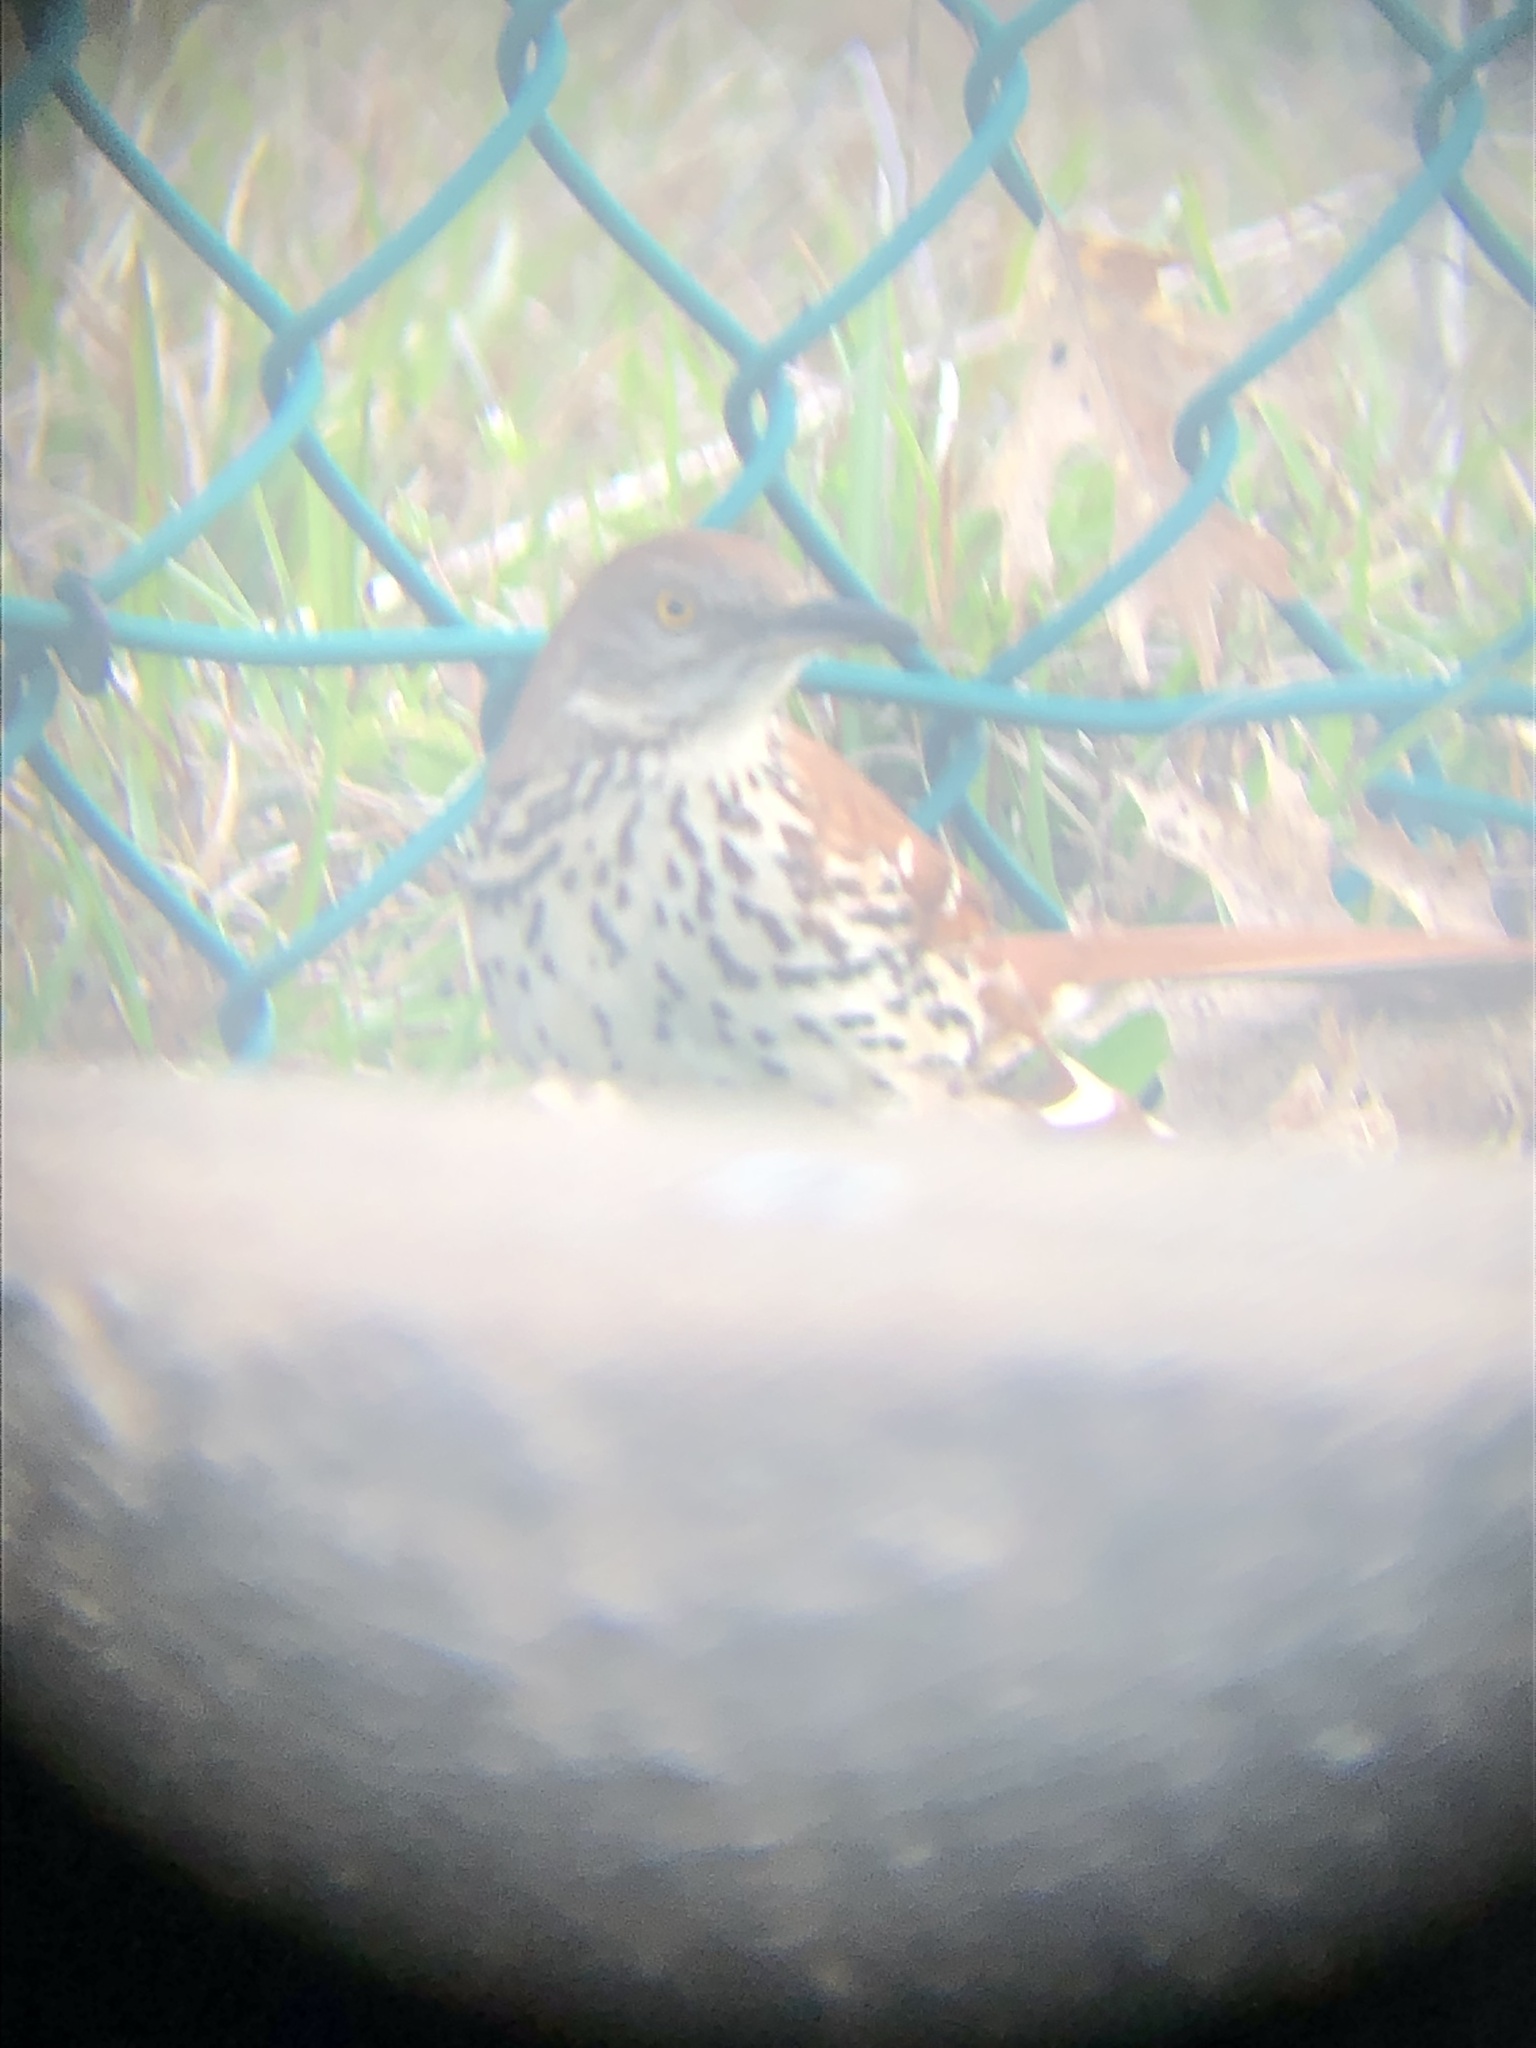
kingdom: Animalia
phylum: Chordata
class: Aves
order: Passeriformes
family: Mimidae
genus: Toxostoma
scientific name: Toxostoma rufum
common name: Brown thrasher
